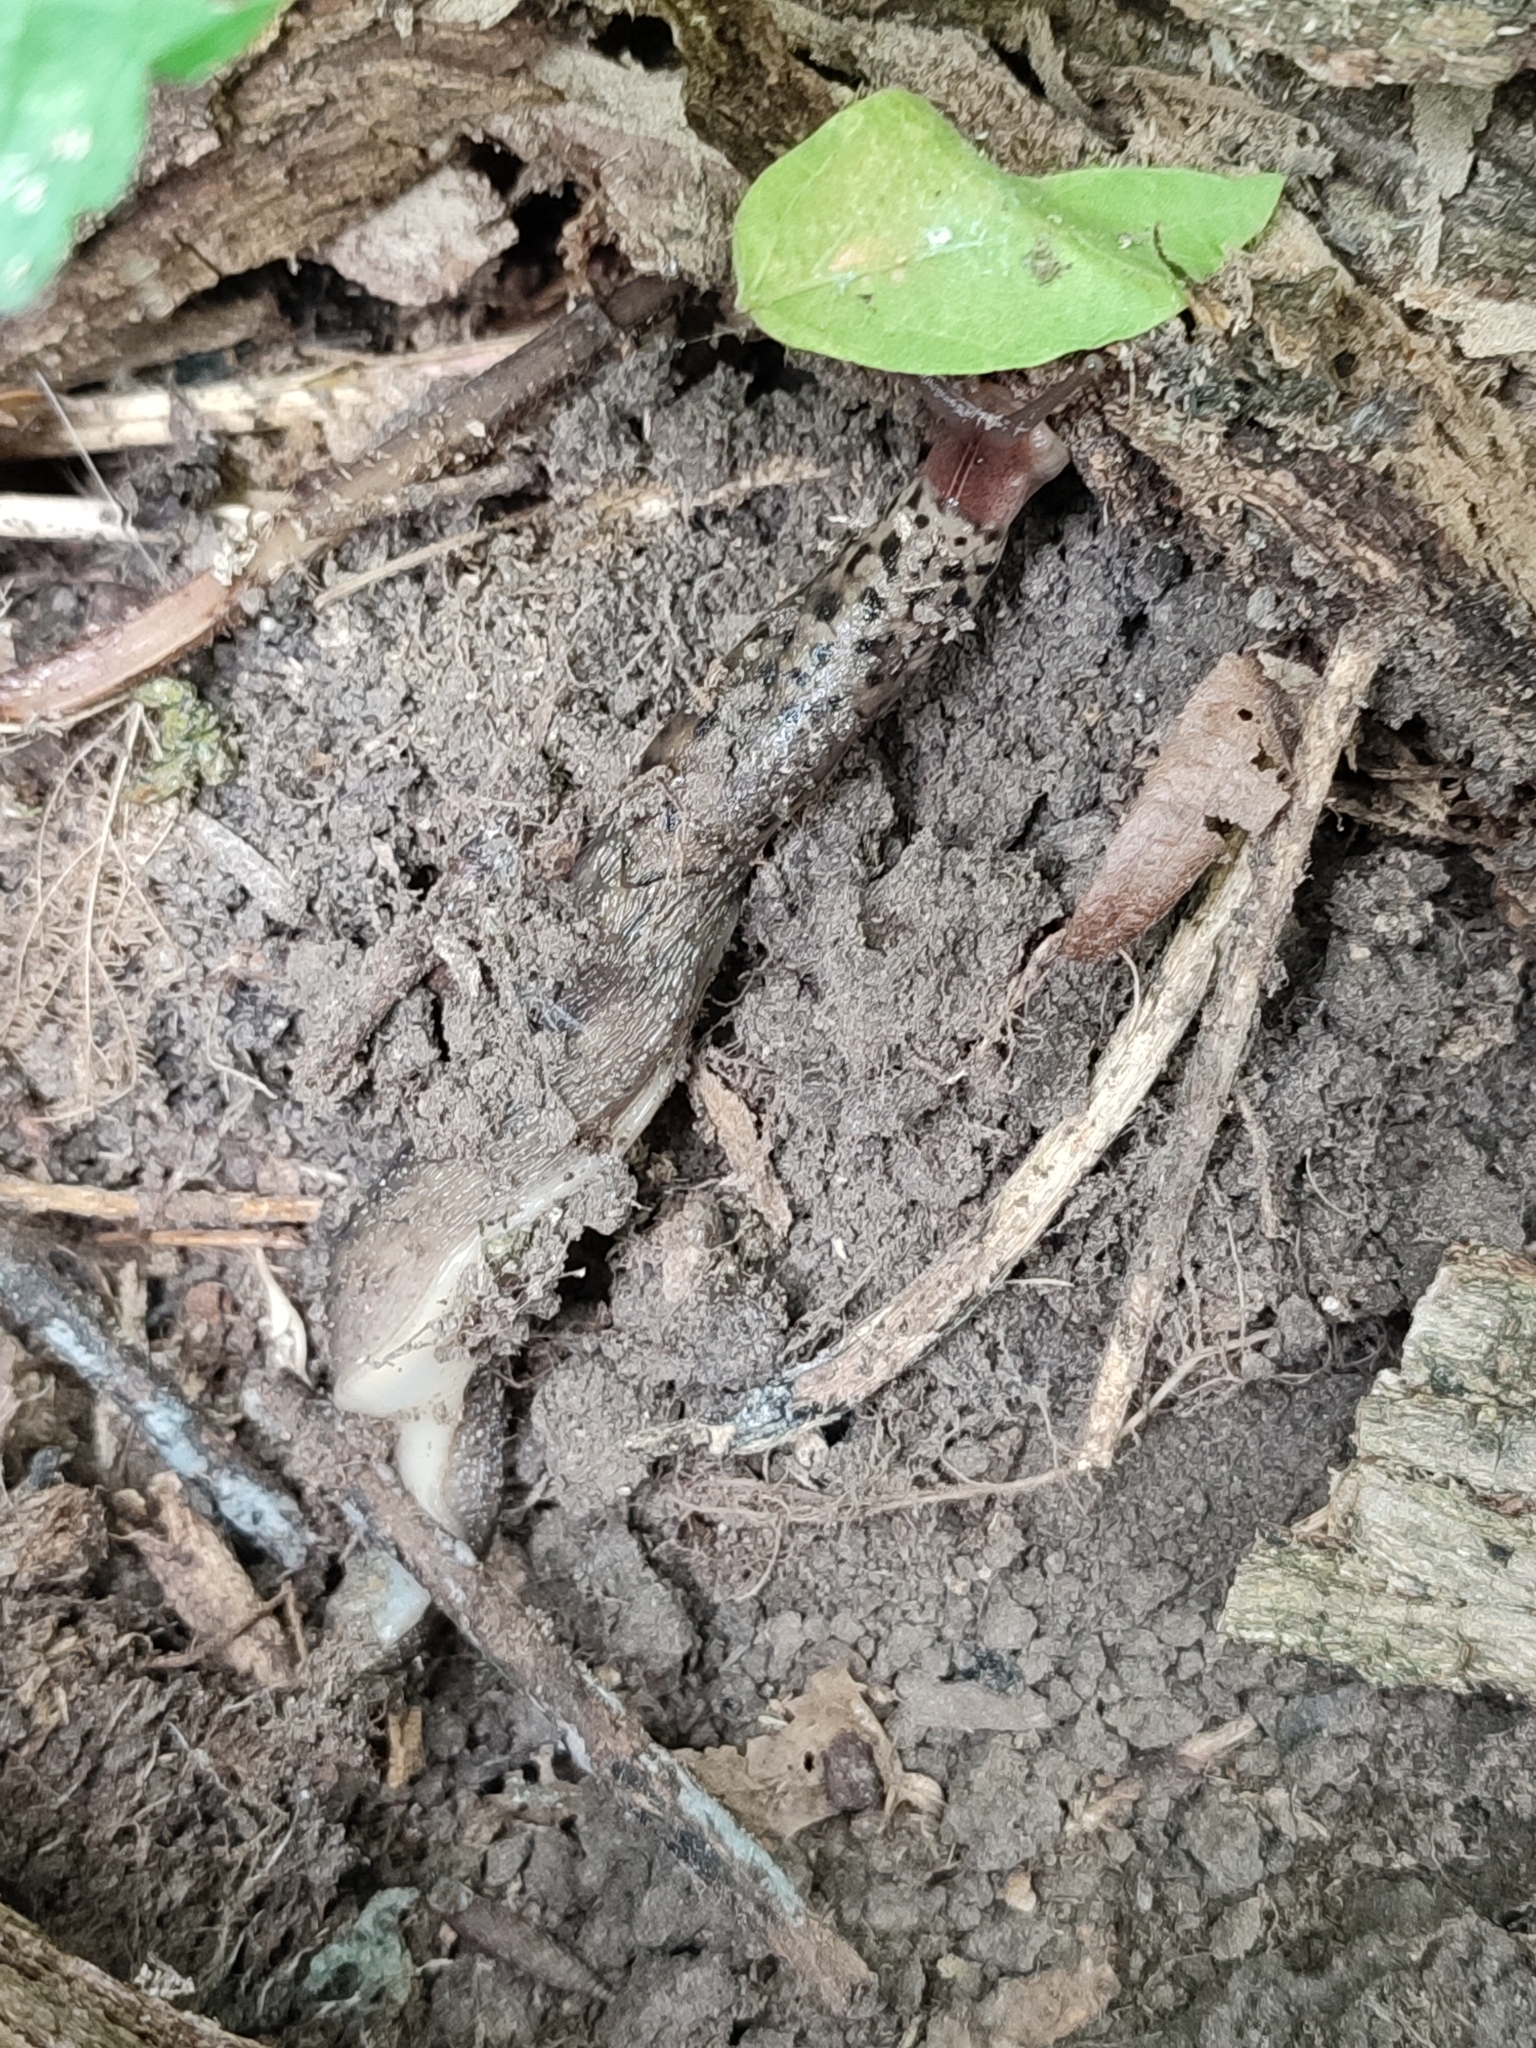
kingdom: Animalia
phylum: Mollusca
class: Gastropoda
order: Stylommatophora
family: Limacidae
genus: Limax
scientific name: Limax maximus
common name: Great grey slug
